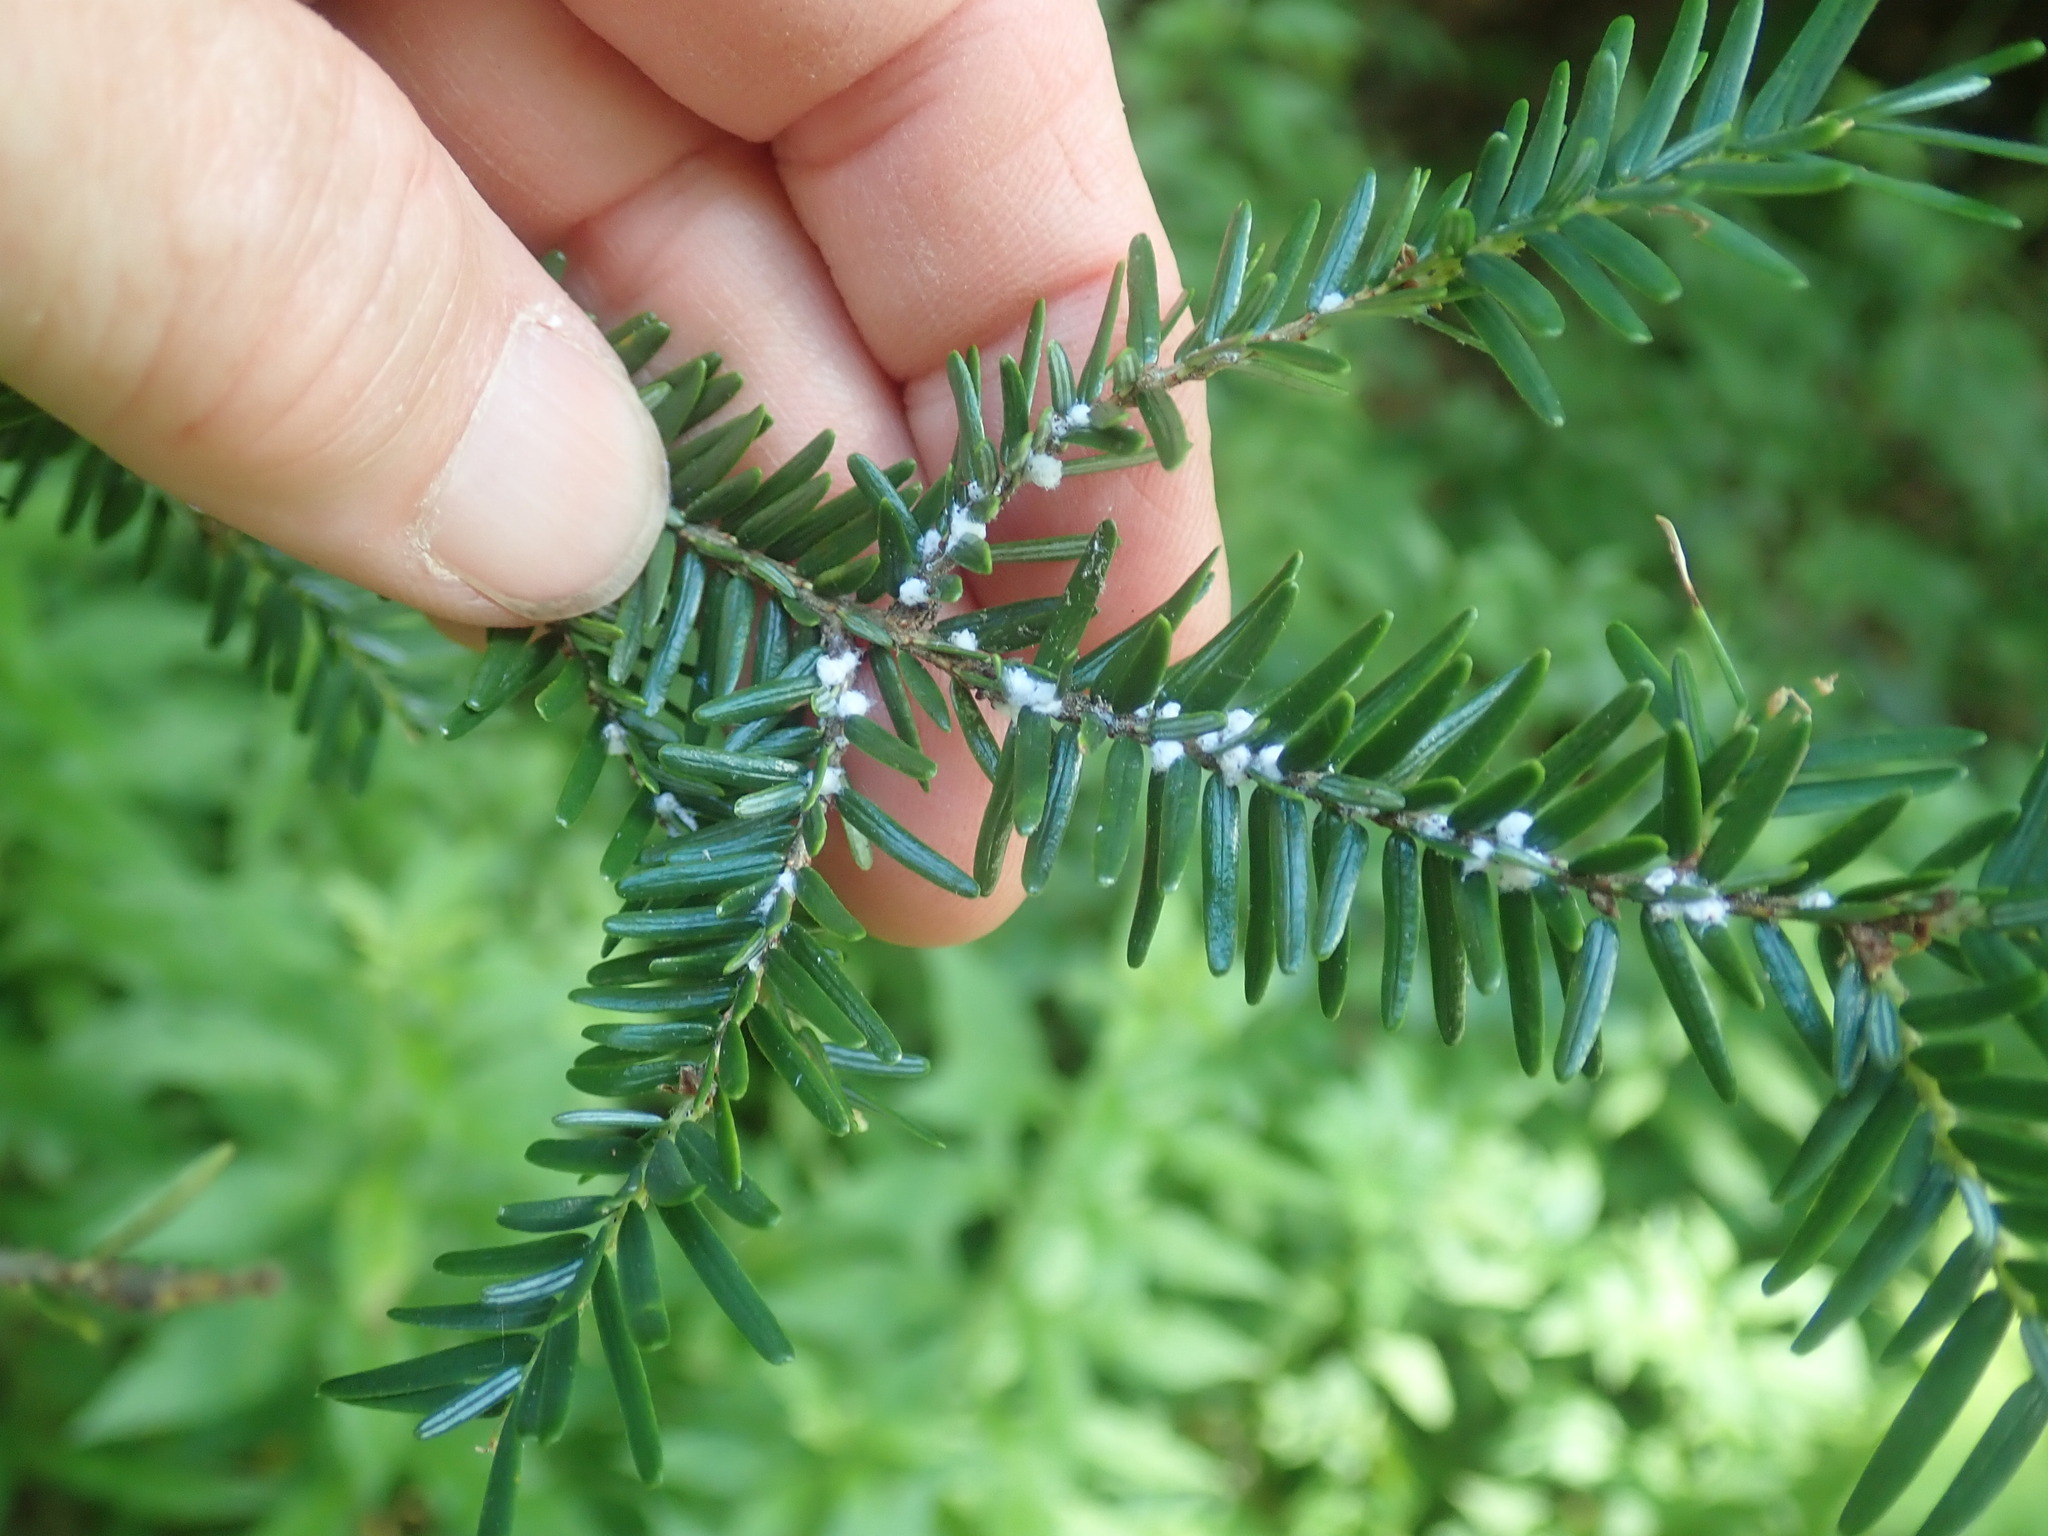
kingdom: Animalia
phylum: Arthropoda
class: Insecta
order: Hemiptera
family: Adelgidae
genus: Adelges
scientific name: Adelges tsugae
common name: Hemlock woolly adelgid
